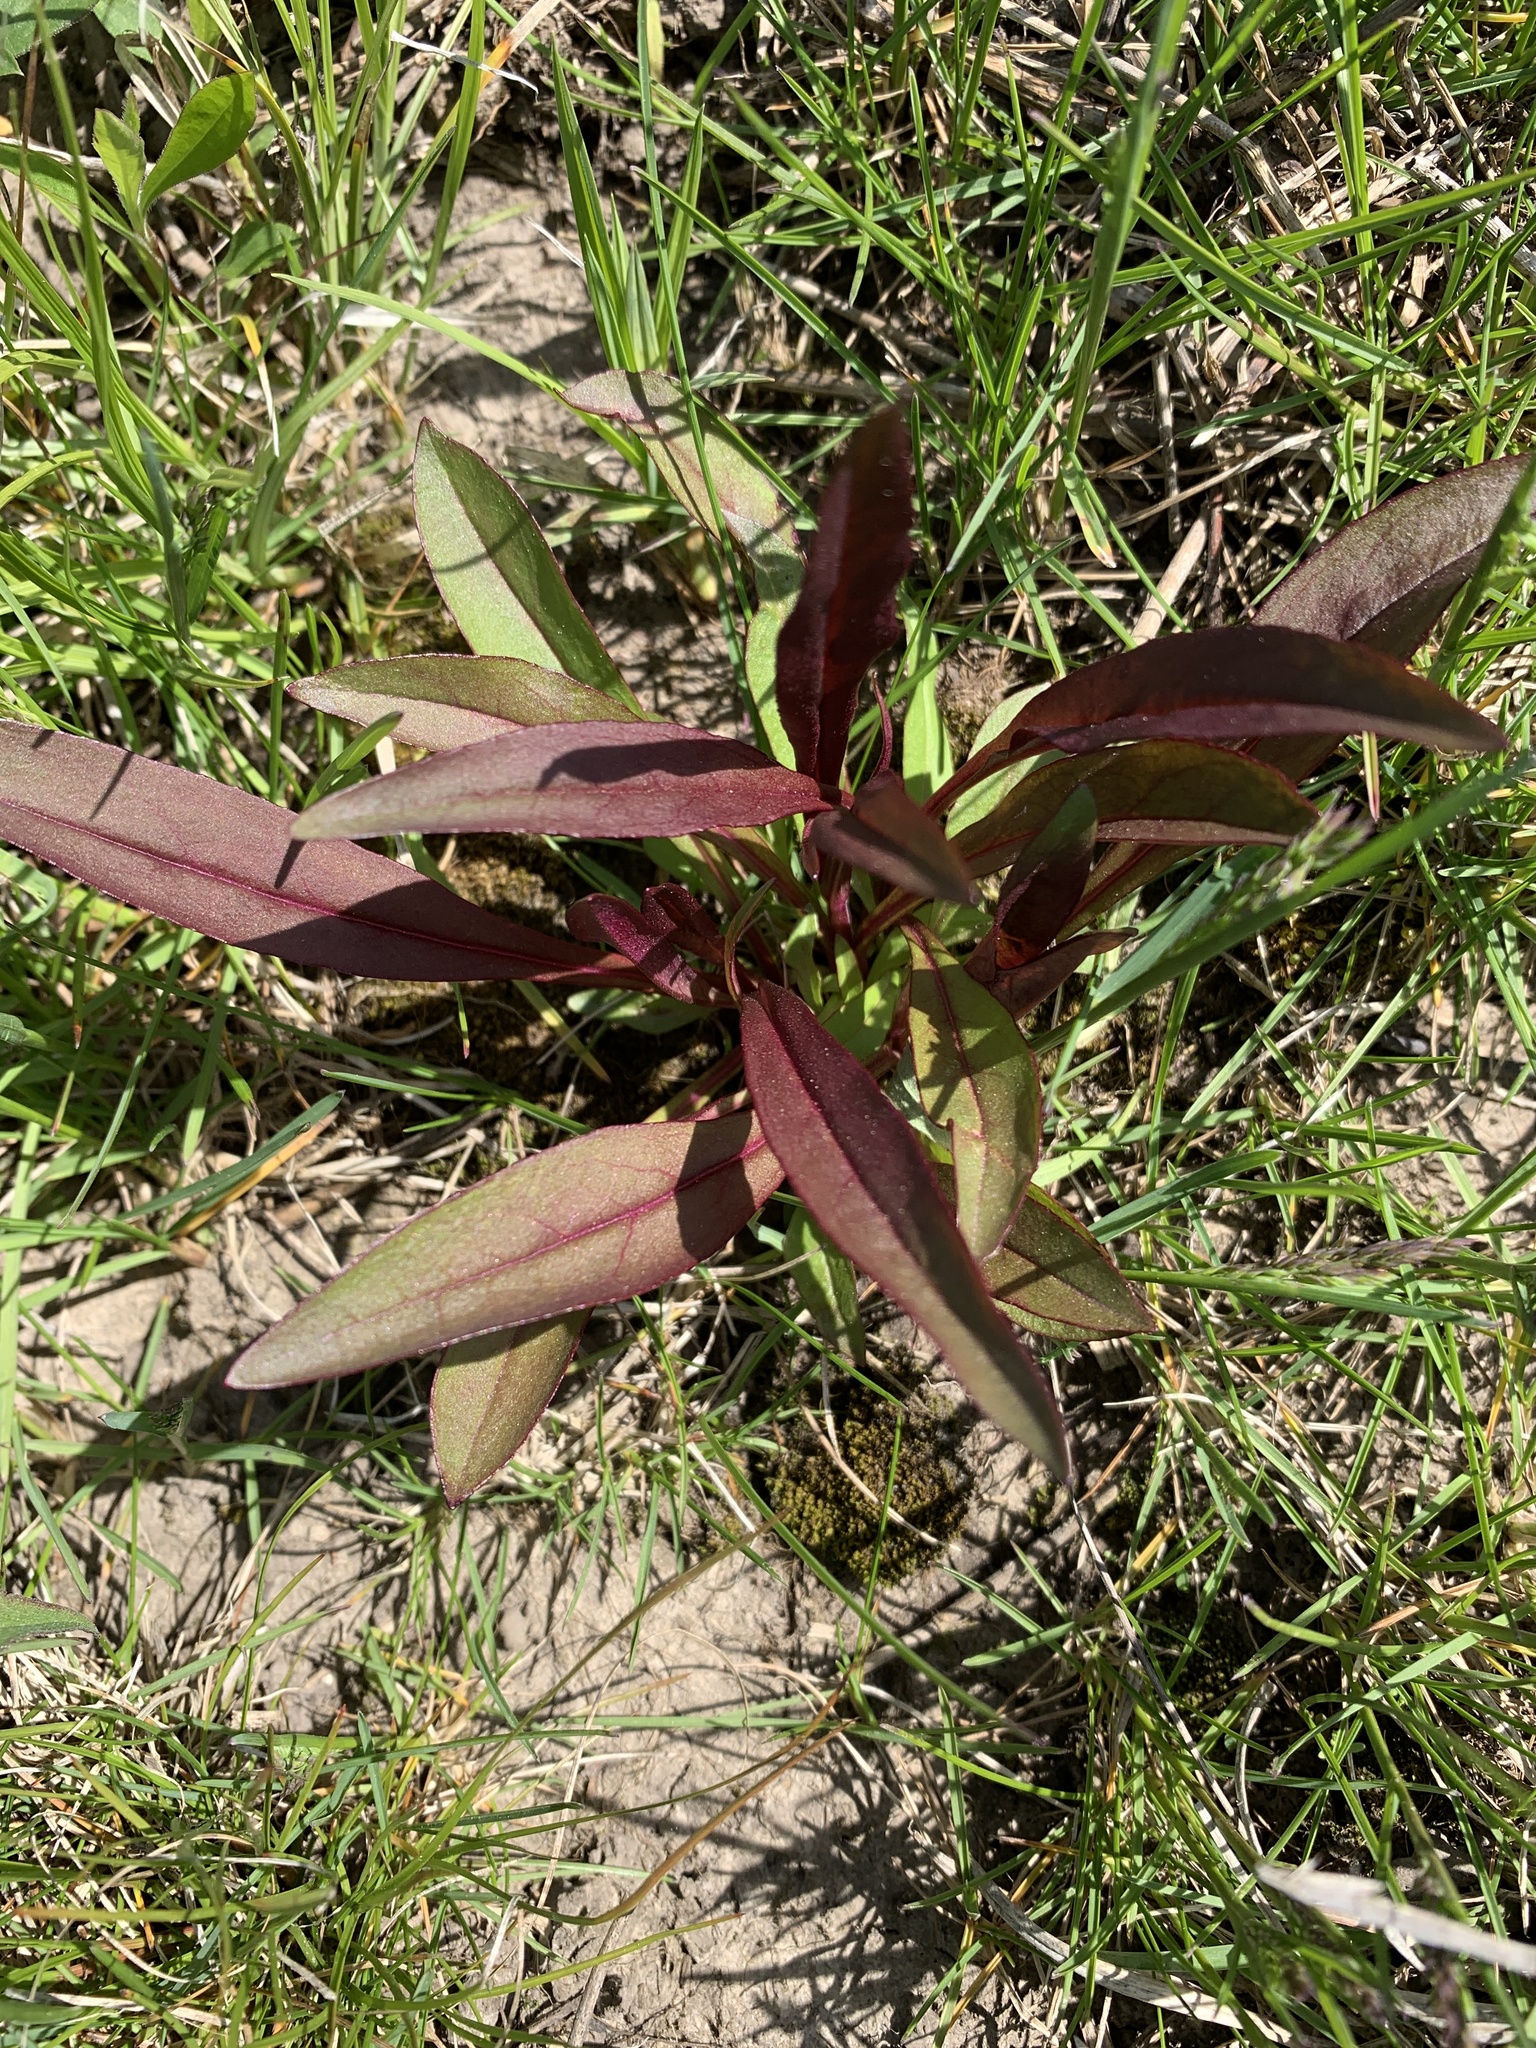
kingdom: Plantae
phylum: Tracheophyta
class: Magnoliopsida
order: Lamiales
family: Plantaginaceae
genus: Penstemon
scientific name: Penstemon digitalis
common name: Foxglove beardtongue
